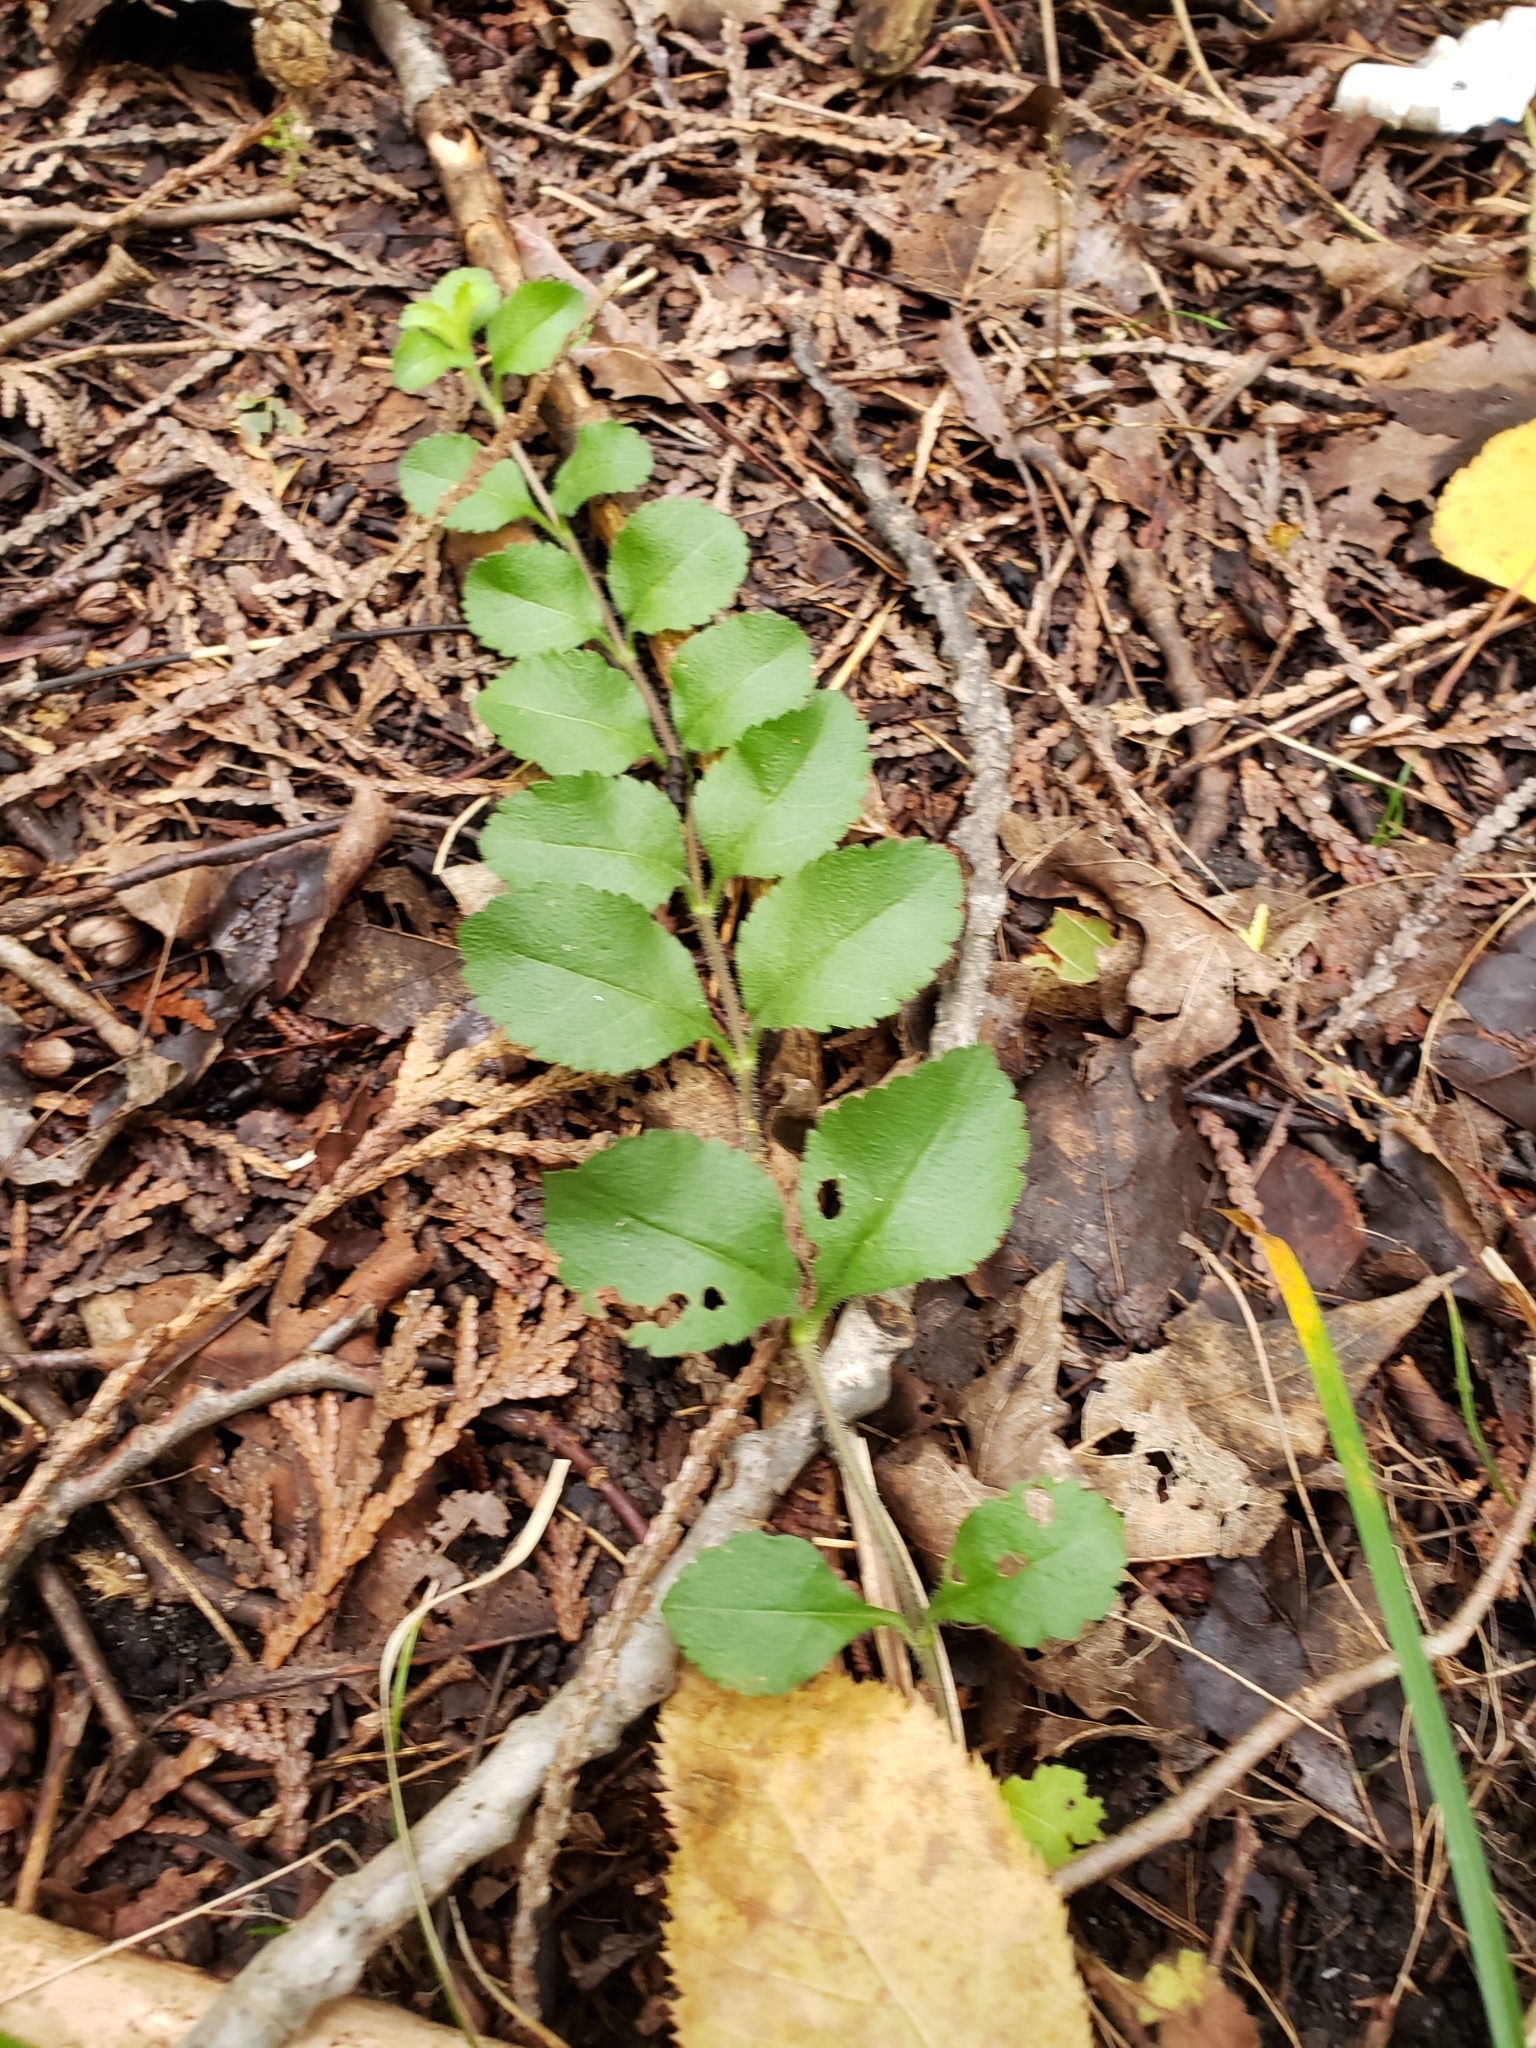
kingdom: Plantae
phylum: Tracheophyta
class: Magnoliopsida
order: Lamiales
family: Plantaginaceae
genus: Veronica
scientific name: Veronica officinalis
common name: Common speedwell
